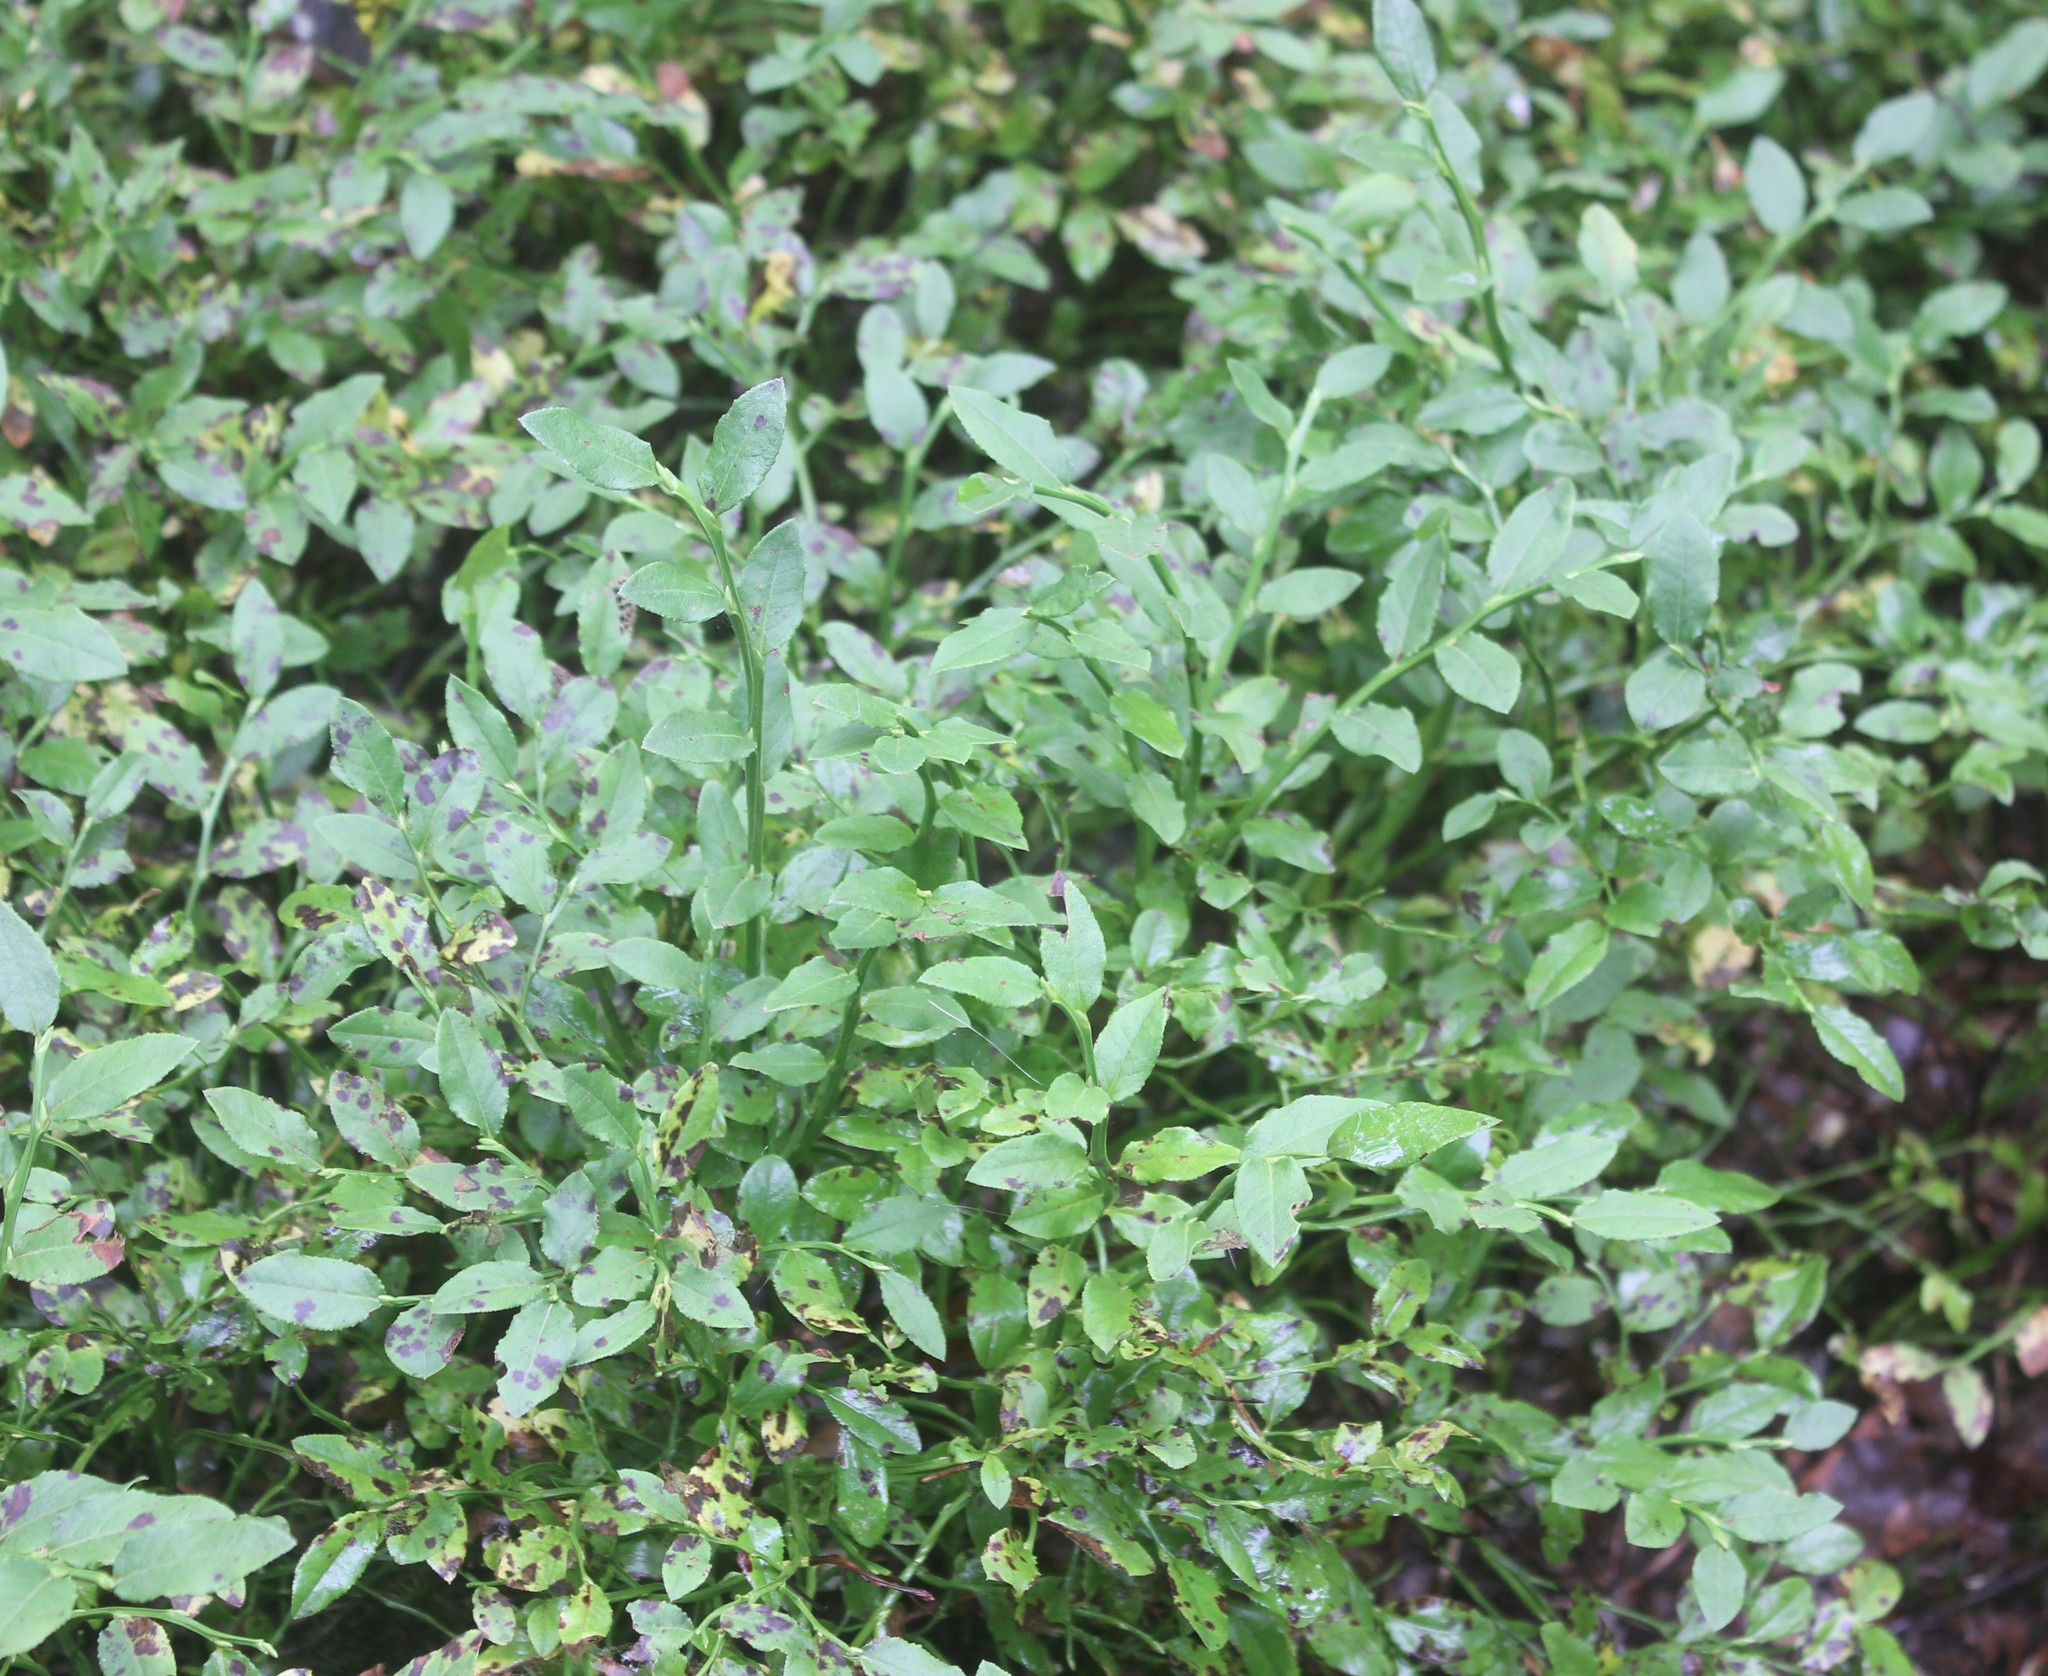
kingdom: Plantae
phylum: Tracheophyta
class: Magnoliopsida
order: Ericales
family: Ericaceae
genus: Vaccinium
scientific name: Vaccinium myrtillus
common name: Bilberry
